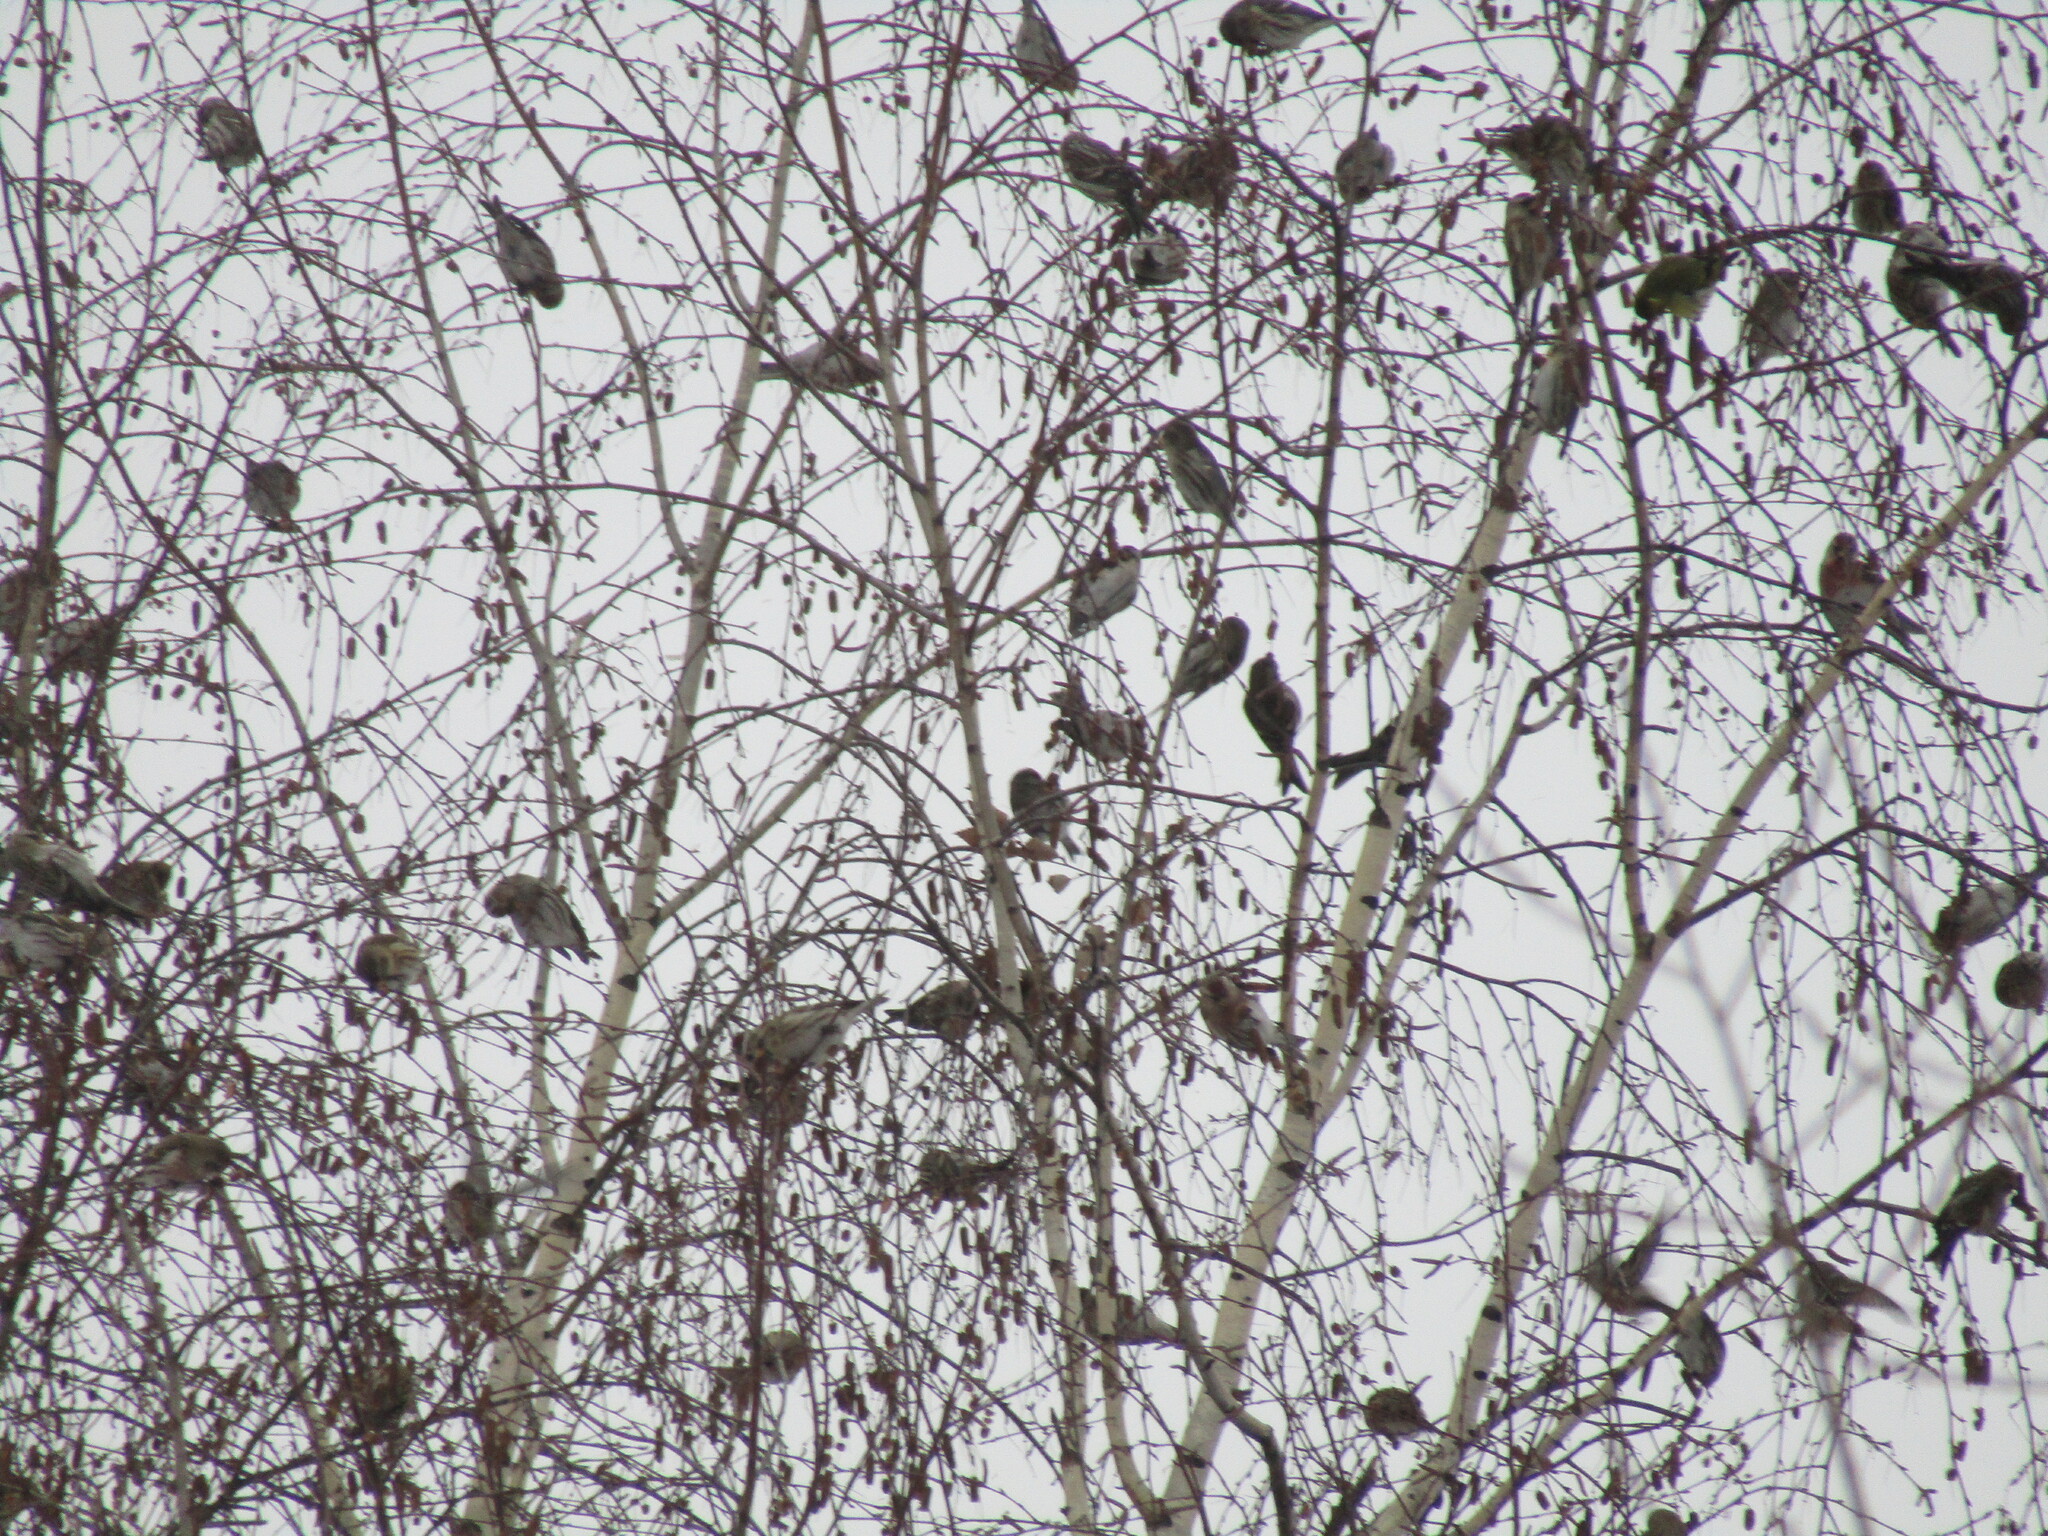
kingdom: Animalia
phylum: Chordata
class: Aves
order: Passeriformes
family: Fringillidae
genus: Acanthis
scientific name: Acanthis flammea
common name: Common redpoll
